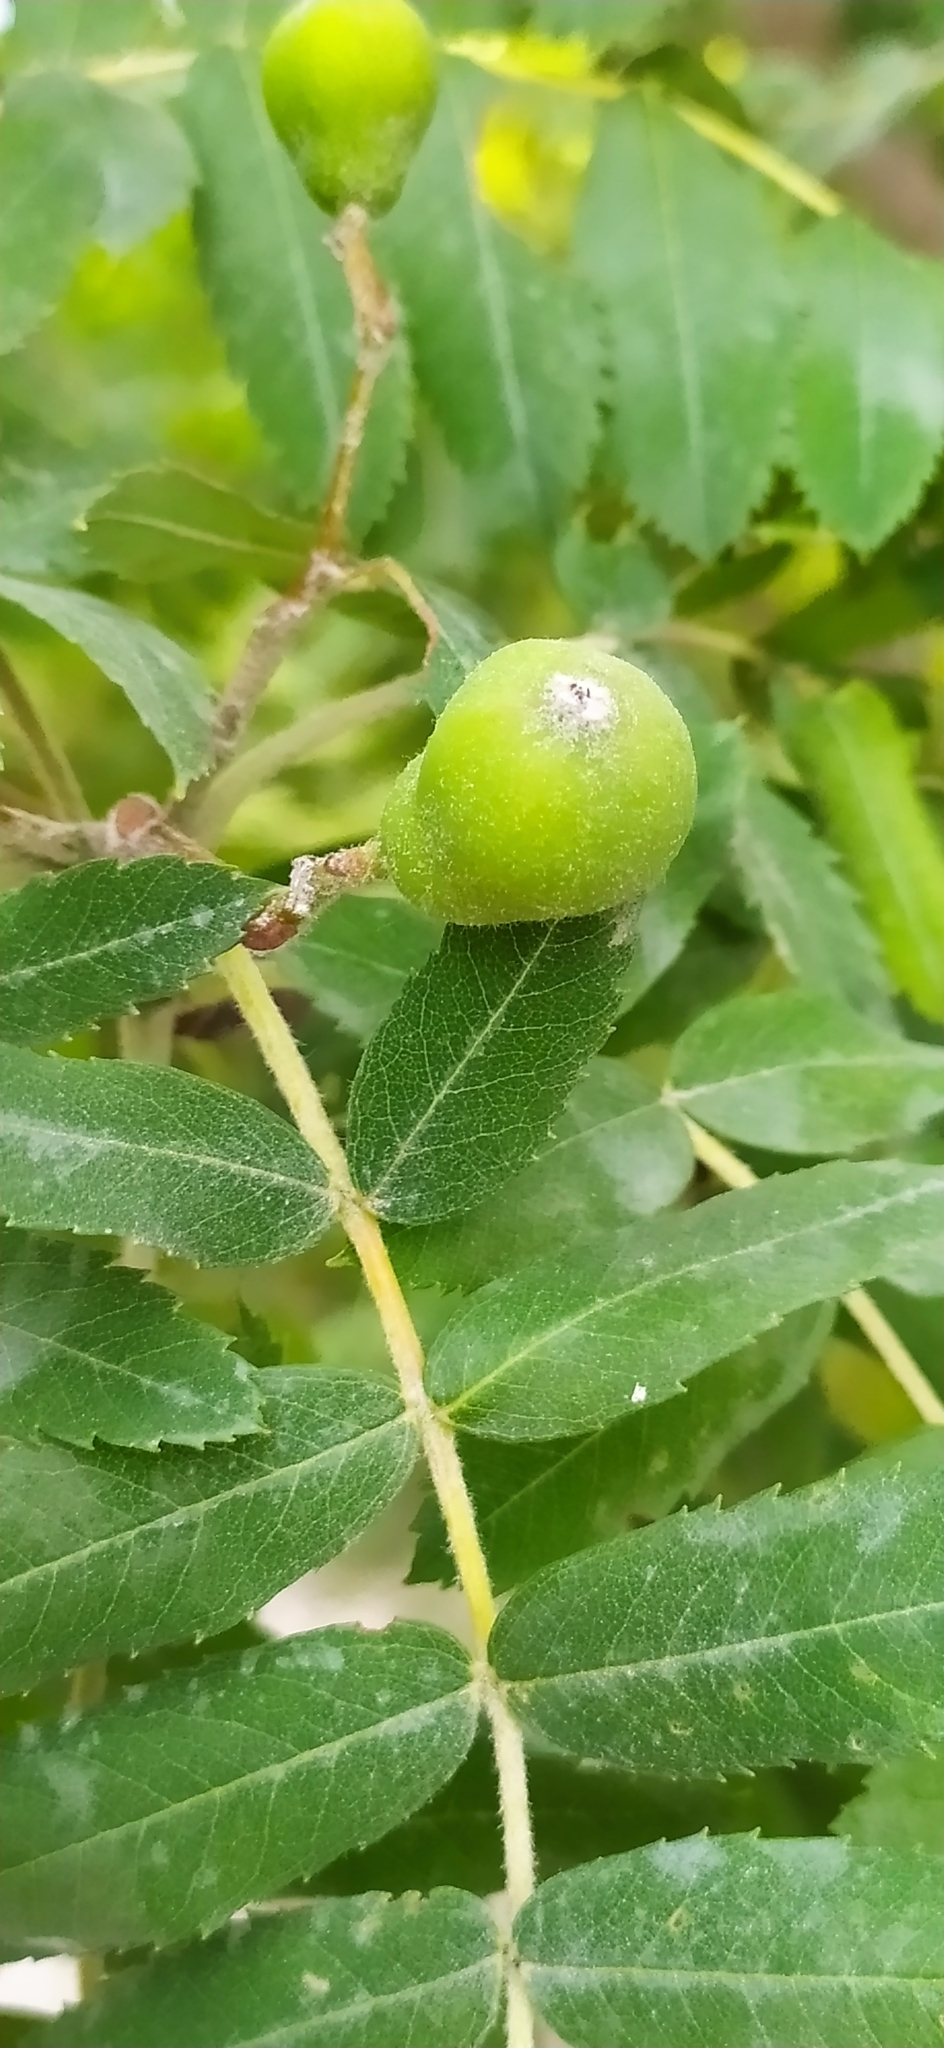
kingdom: Plantae
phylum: Tracheophyta
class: Magnoliopsida
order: Rosales
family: Rosaceae
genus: Cormus
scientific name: Cormus domestica
